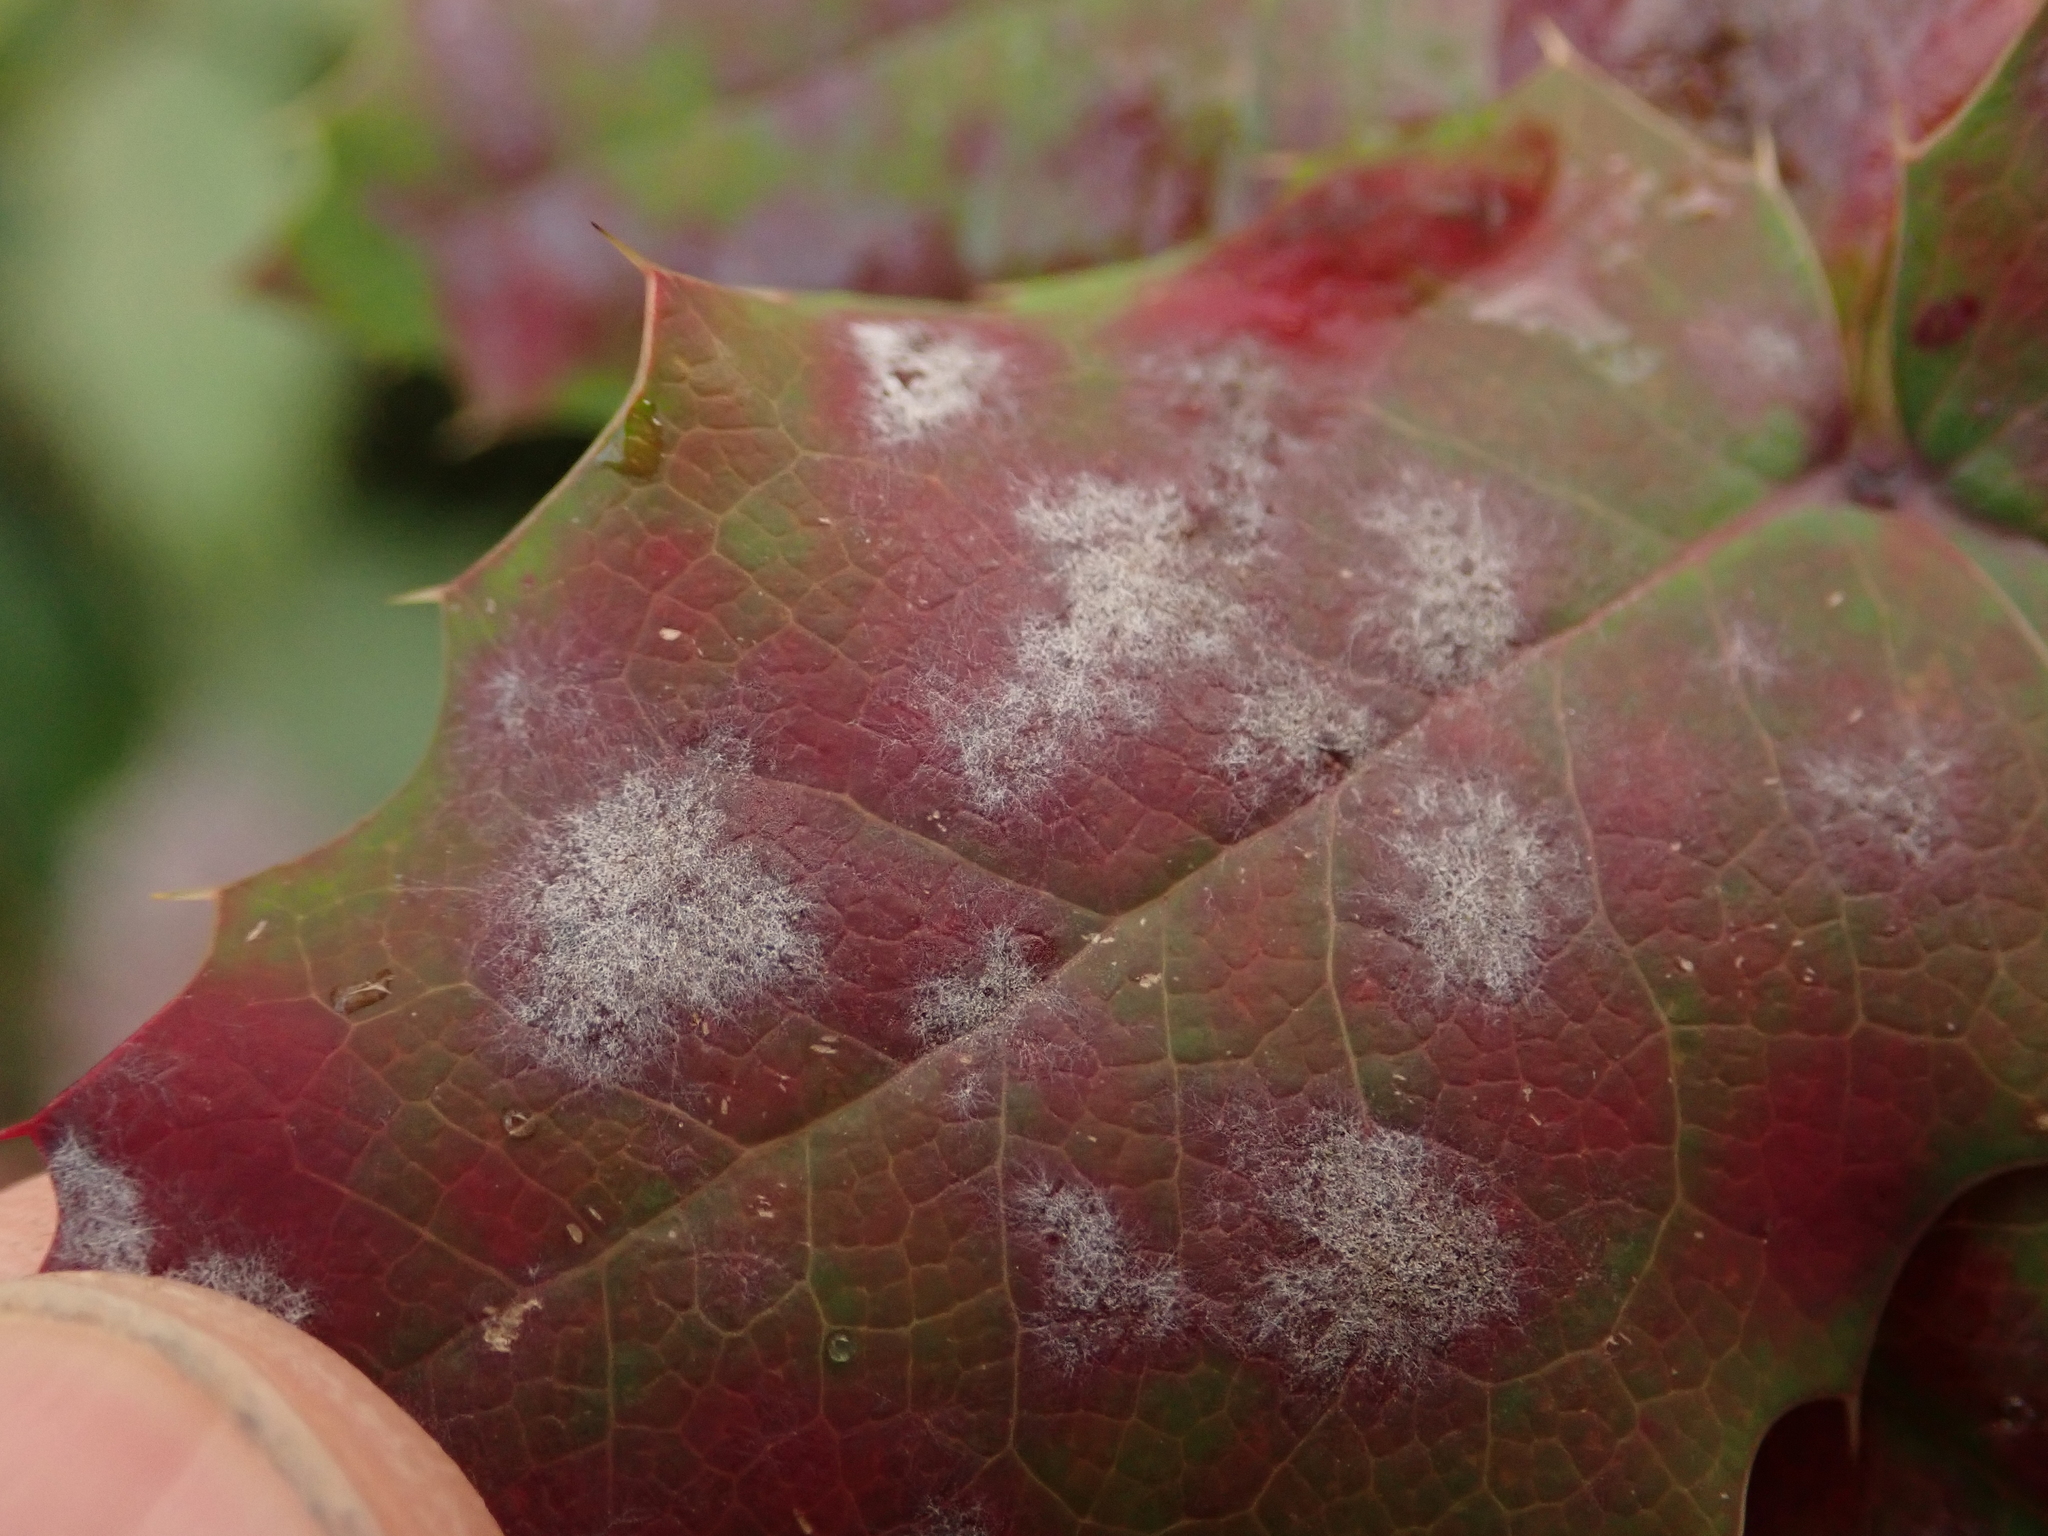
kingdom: Fungi
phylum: Ascomycota
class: Leotiomycetes
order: Helotiales
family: Erysiphaceae
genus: Erysiphe
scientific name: Erysiphe berberidis
